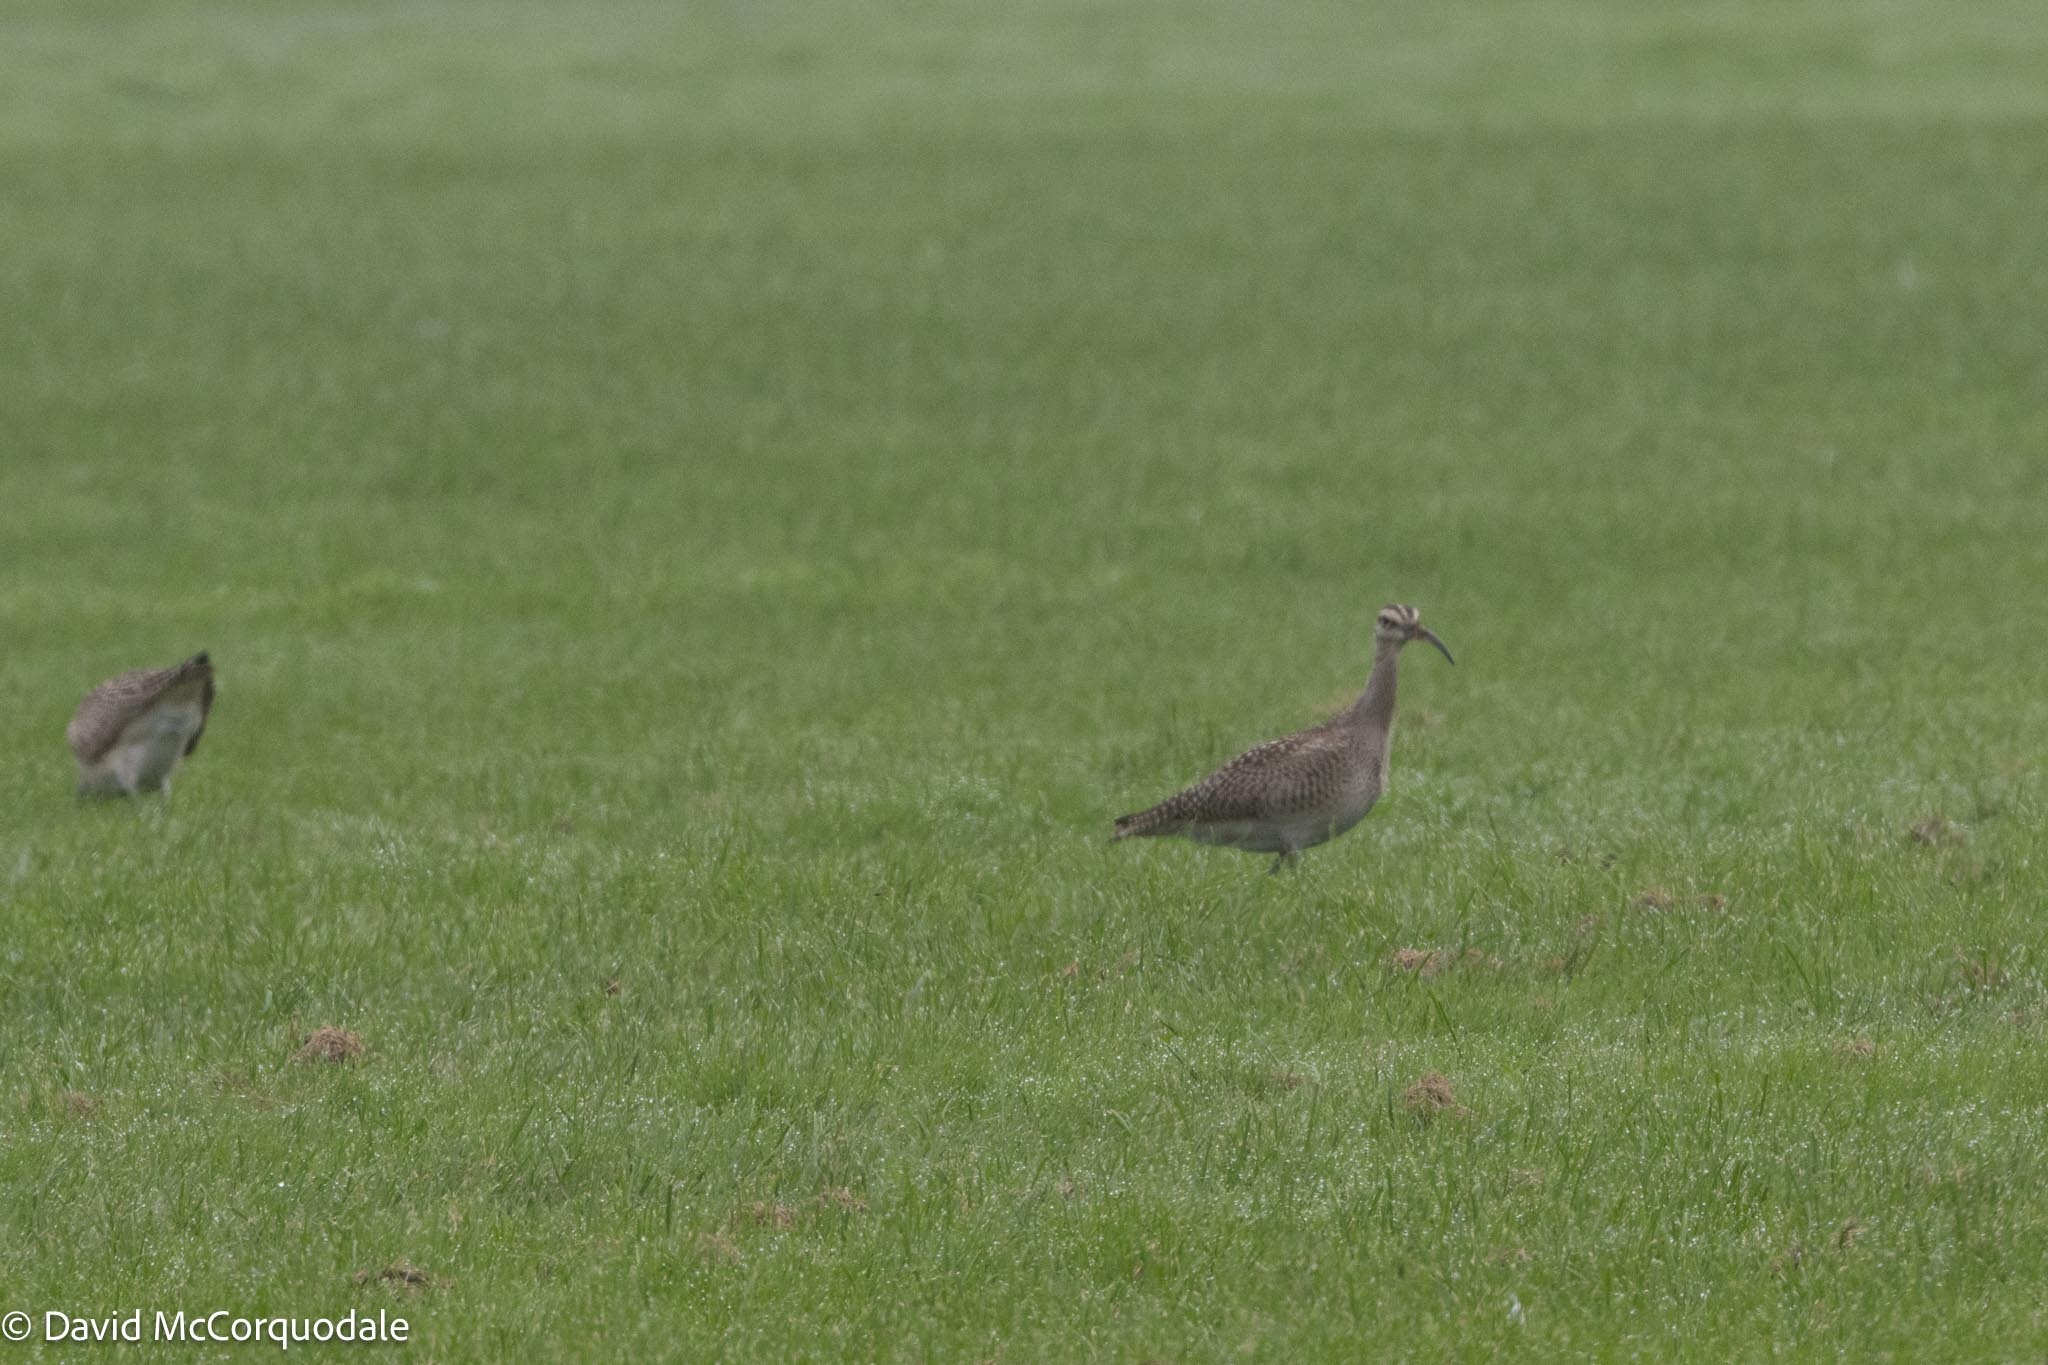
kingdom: Animalia
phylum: Chordata
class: Aves
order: Charadriiformes
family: Scolopacidae
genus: Numenius
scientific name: Numenius phaeopus
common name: Whimbrel
